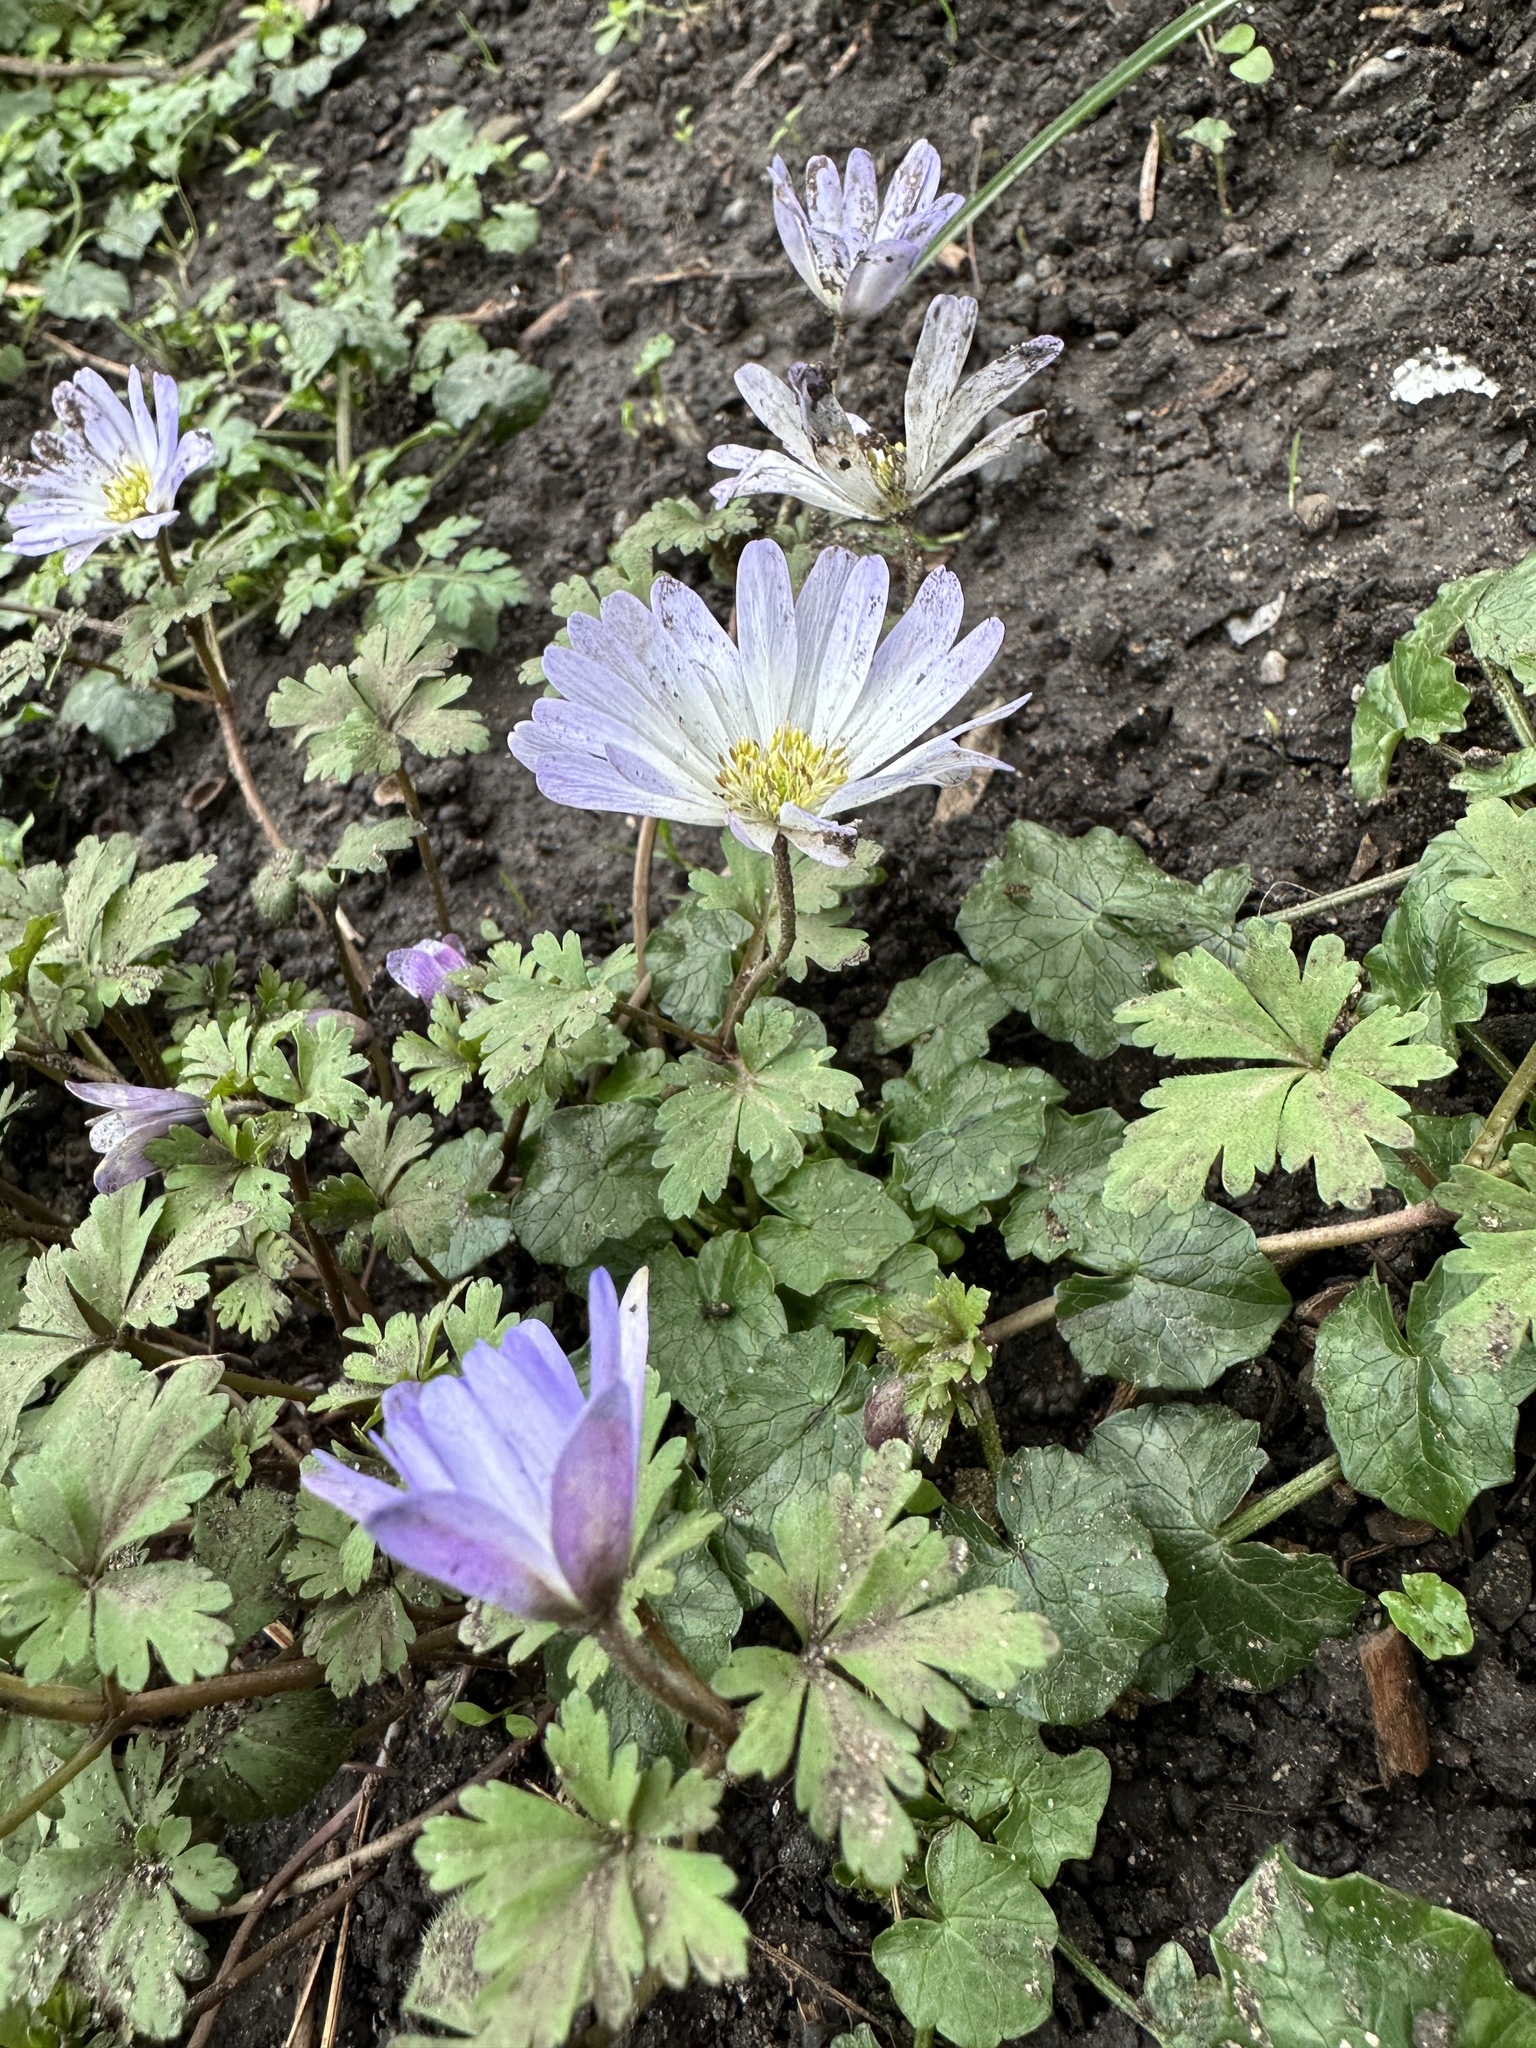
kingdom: Plantae
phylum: Tracheophyta
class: Magnoliopsida
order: Ranunculales
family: Ranunculaceae
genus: Anemone
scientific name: Anemone blanda
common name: Balkan anemone
